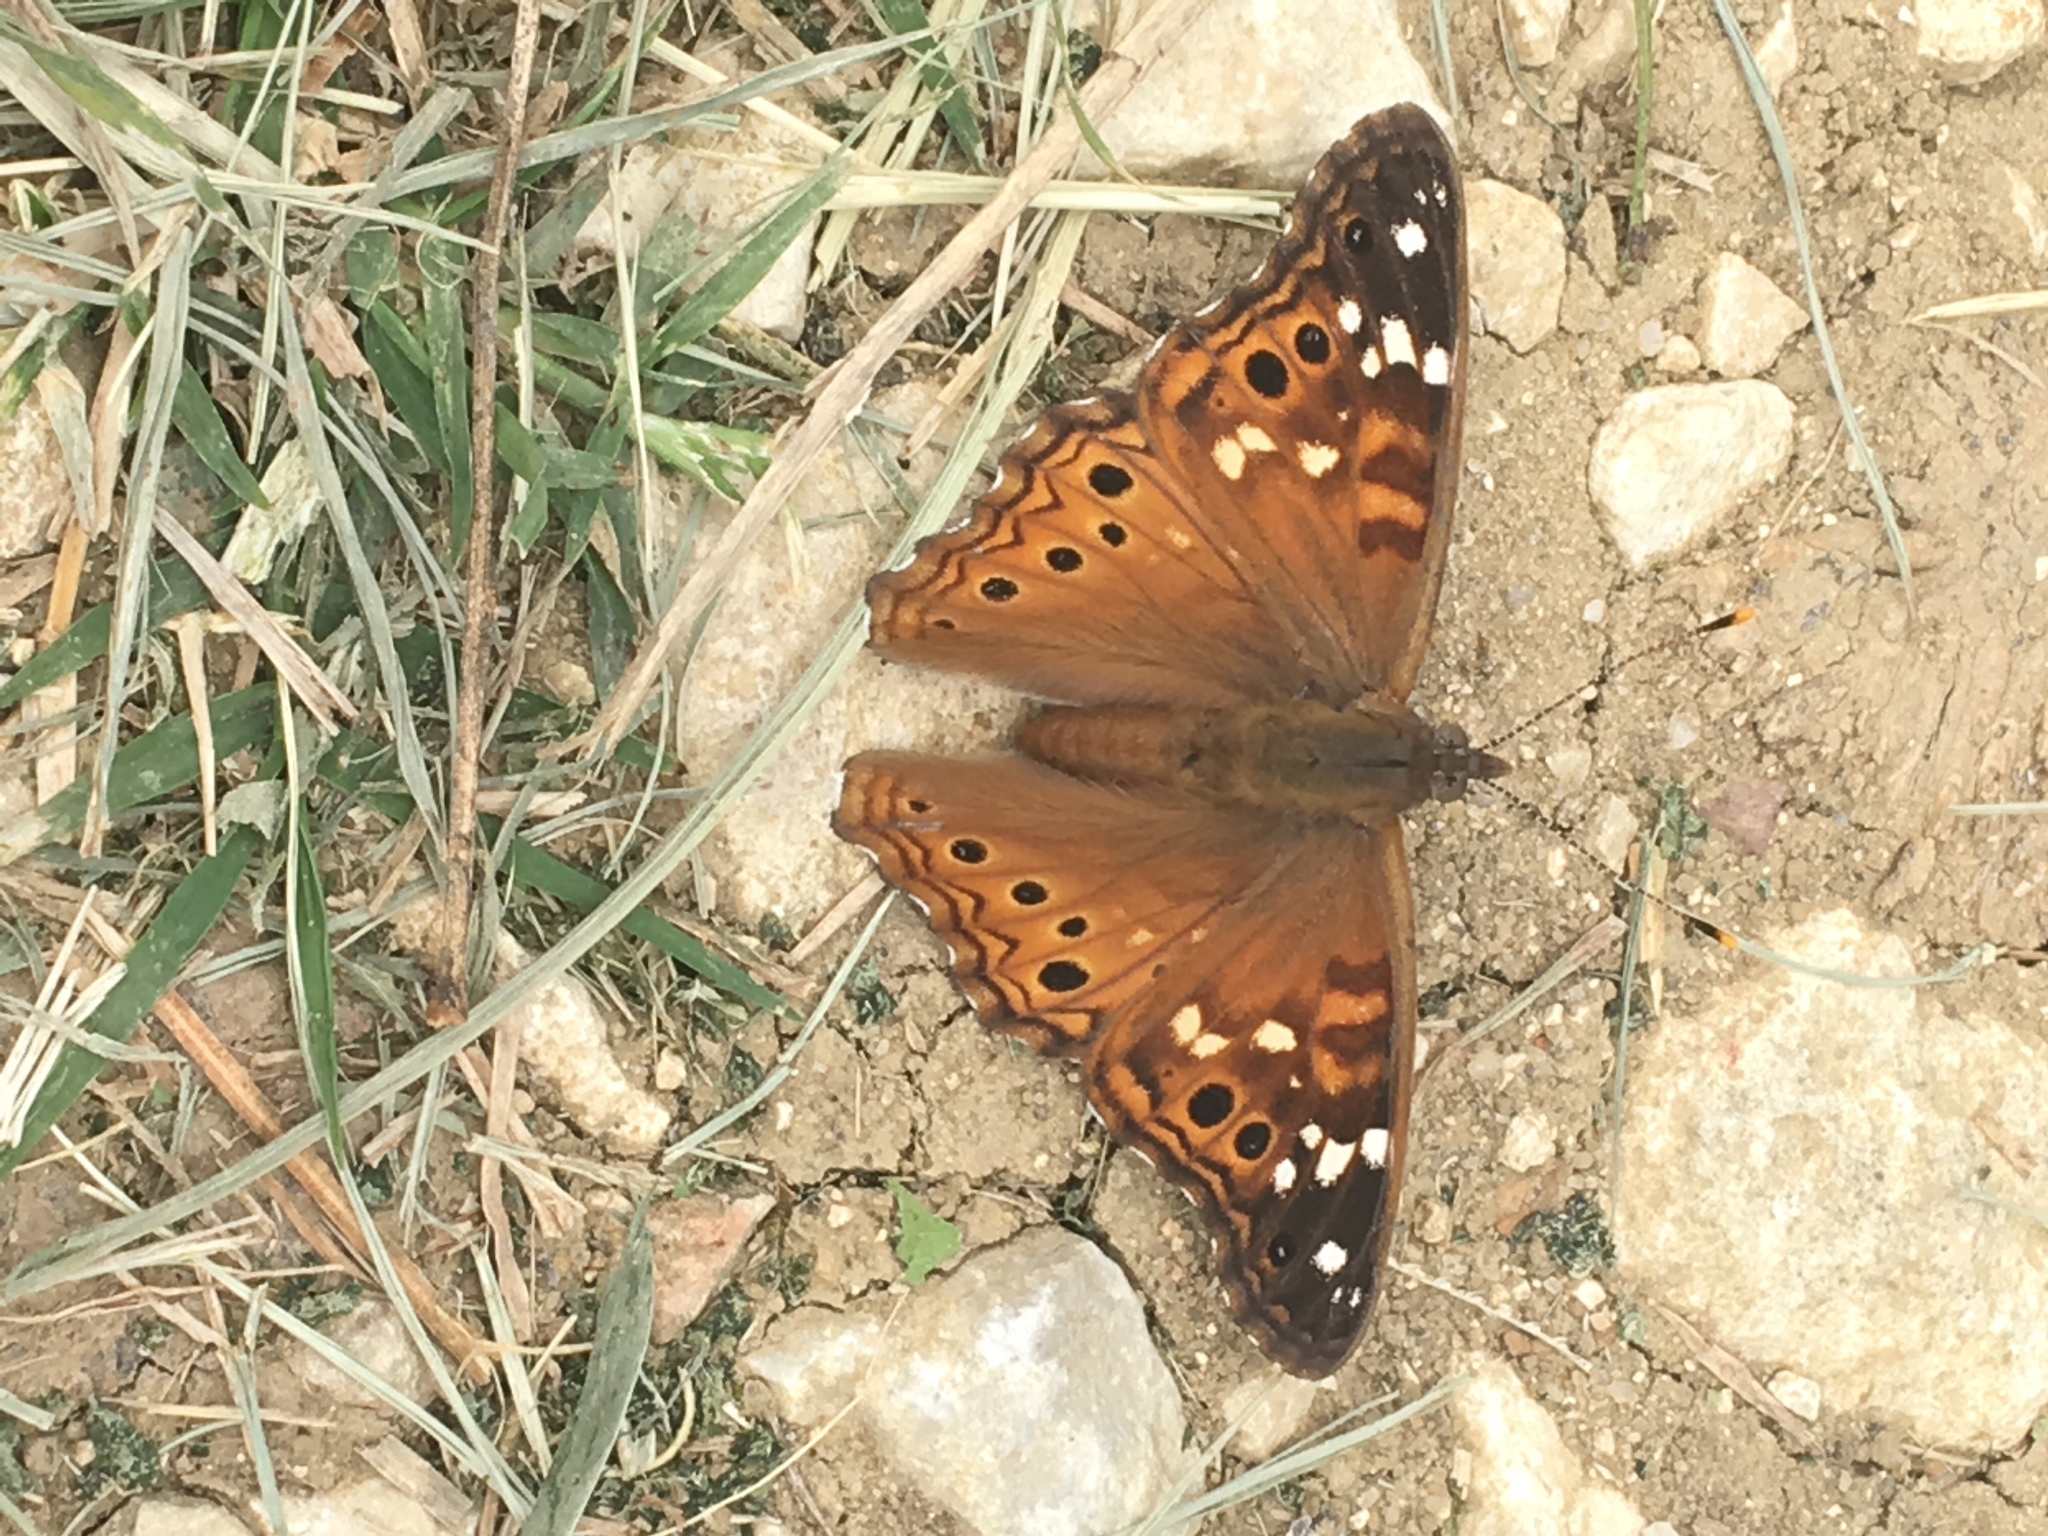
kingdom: Animalia
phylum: Arthropoda
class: Insecta
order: Lepidoptera
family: Nymphalidae
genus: Asterocampa
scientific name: Asterocampa leilia
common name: Empress leilia
